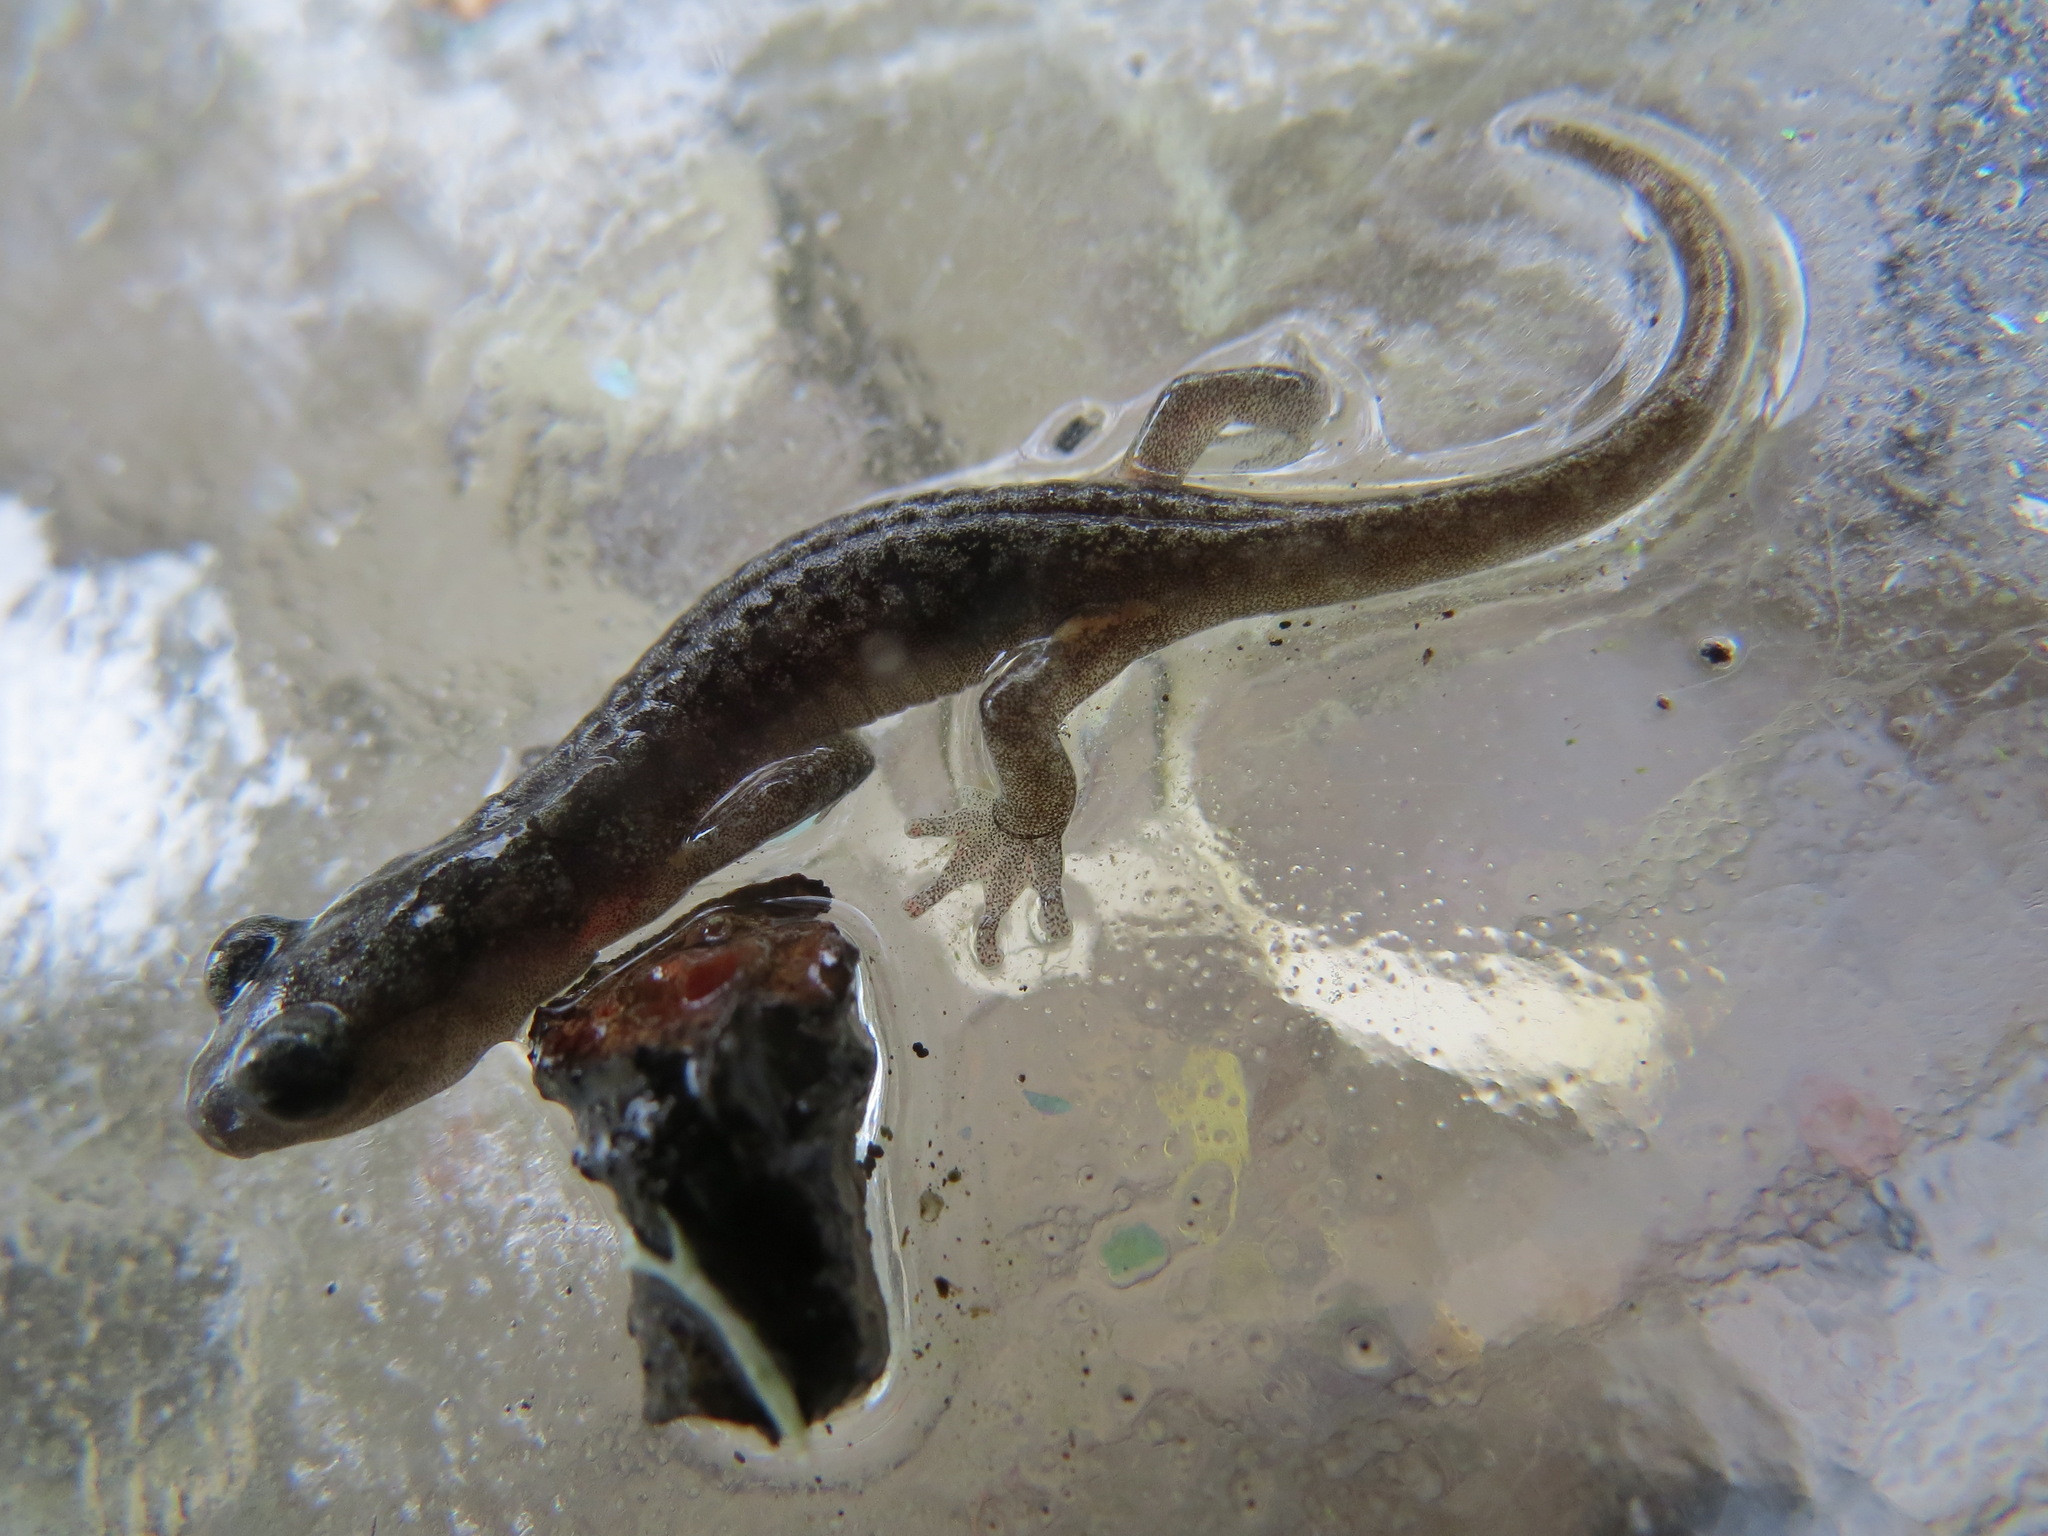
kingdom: Animalia
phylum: Chordata
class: Amphibia
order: Caudata
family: Plethodontidae
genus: Aneides
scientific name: Aneides lugubris
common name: Arboreal salamander
